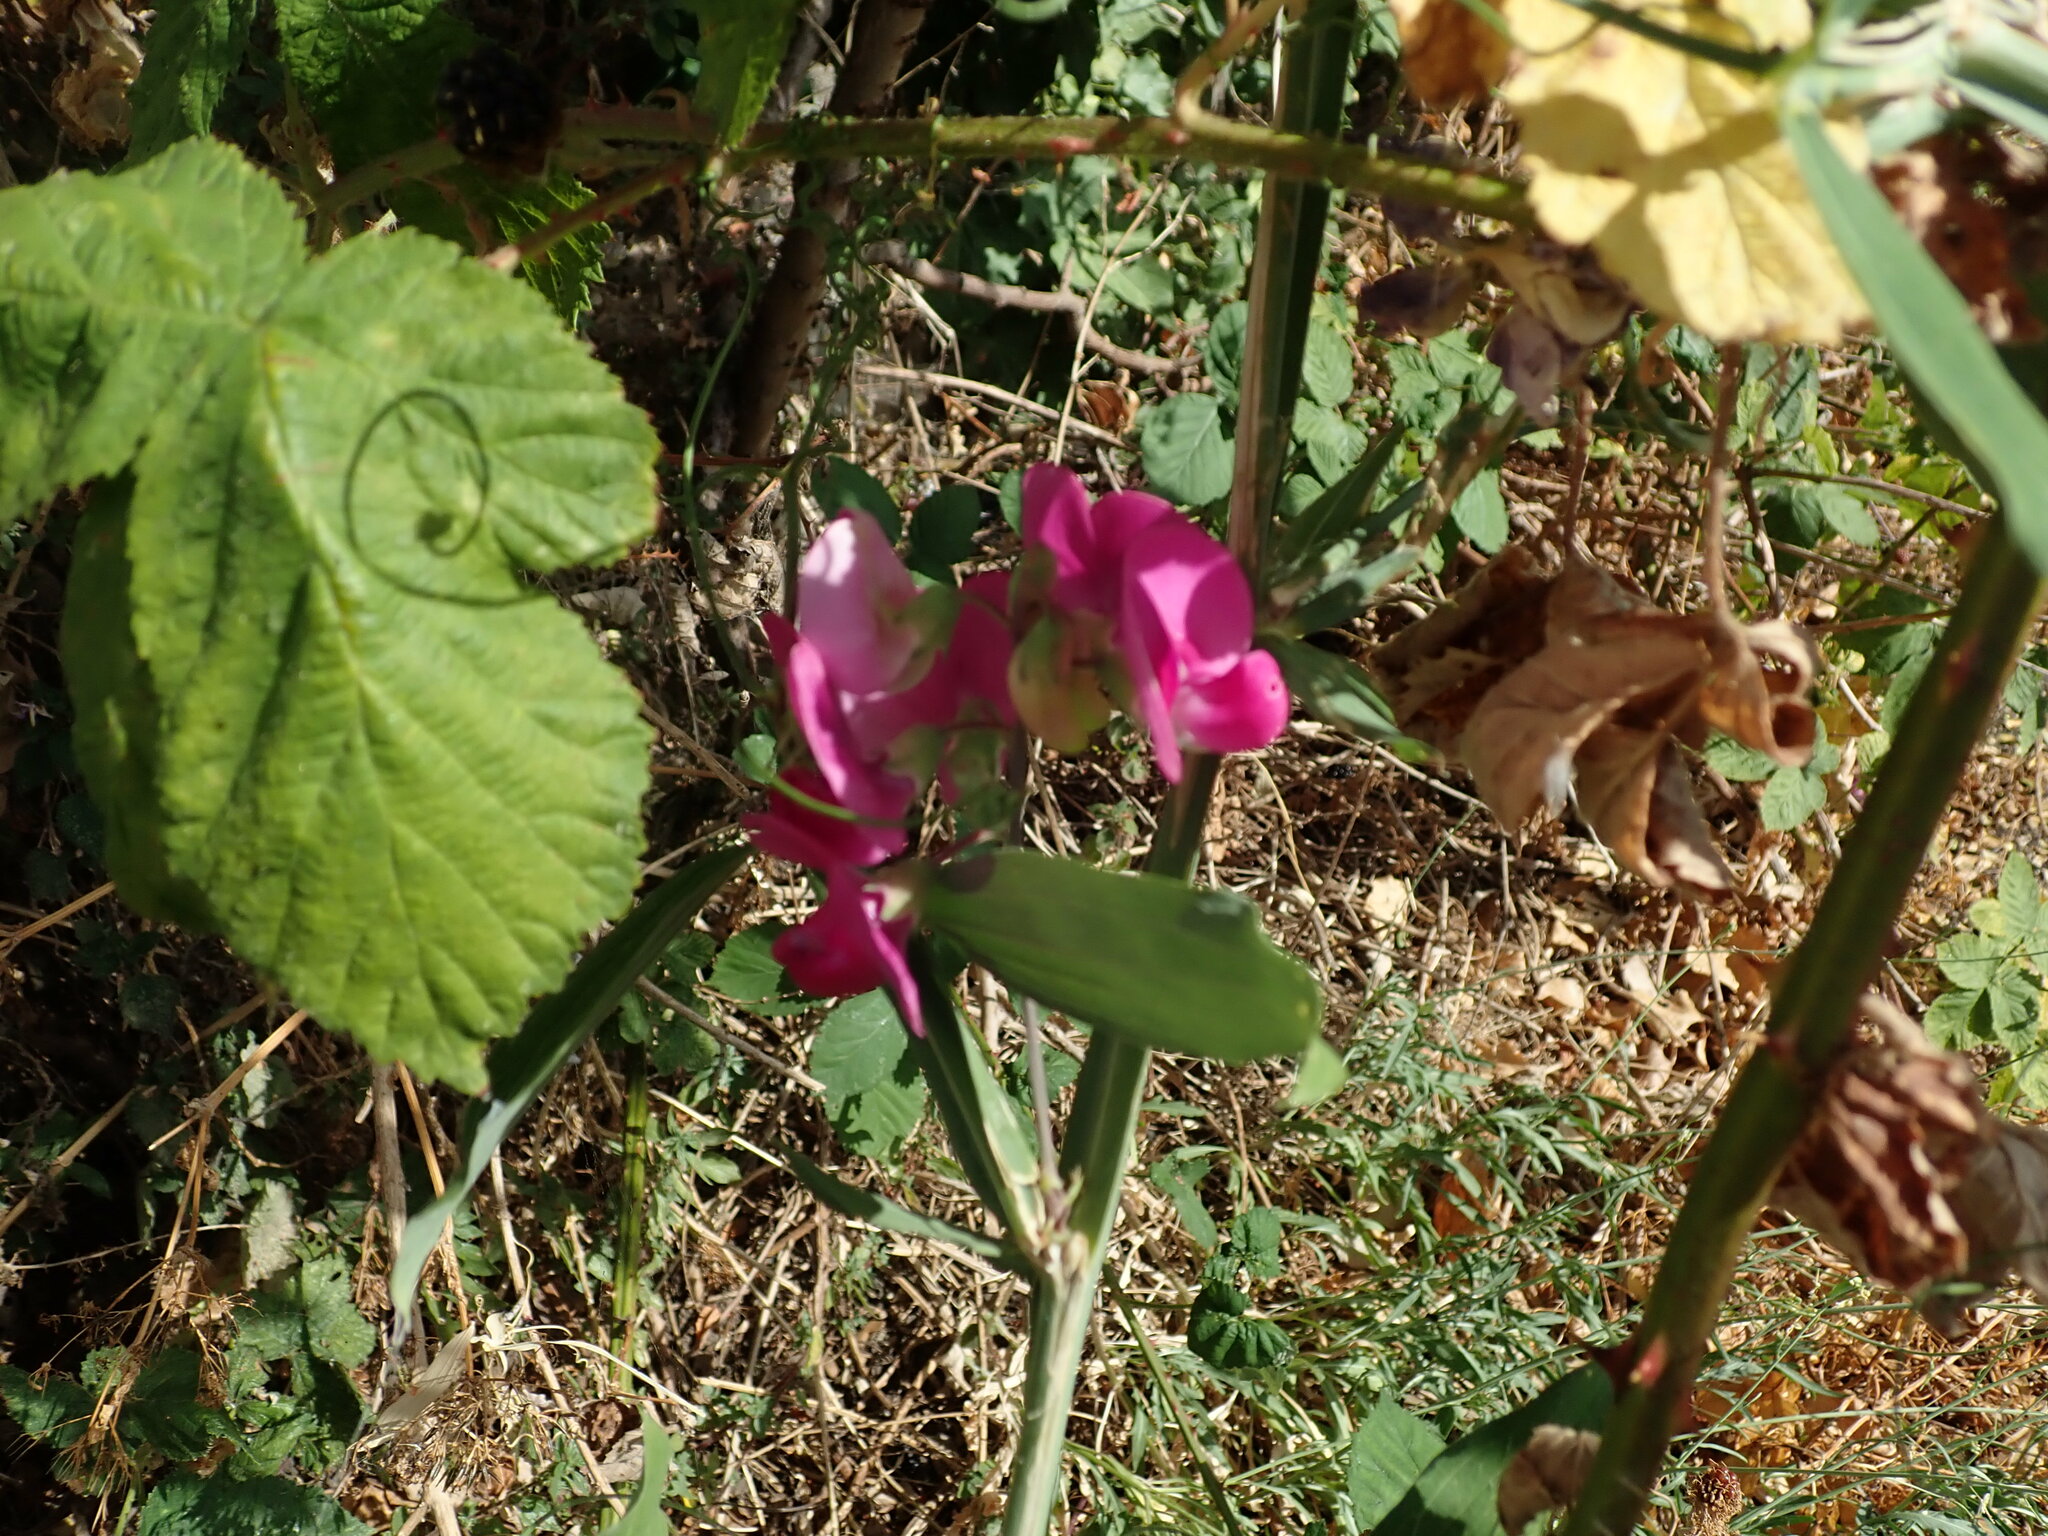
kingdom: Plantae
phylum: Tracheophyta
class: Magnoliopsida
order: Fabales
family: Fabaceae
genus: Lathyrus
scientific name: Lathyrus latifolius
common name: Perennial pea
